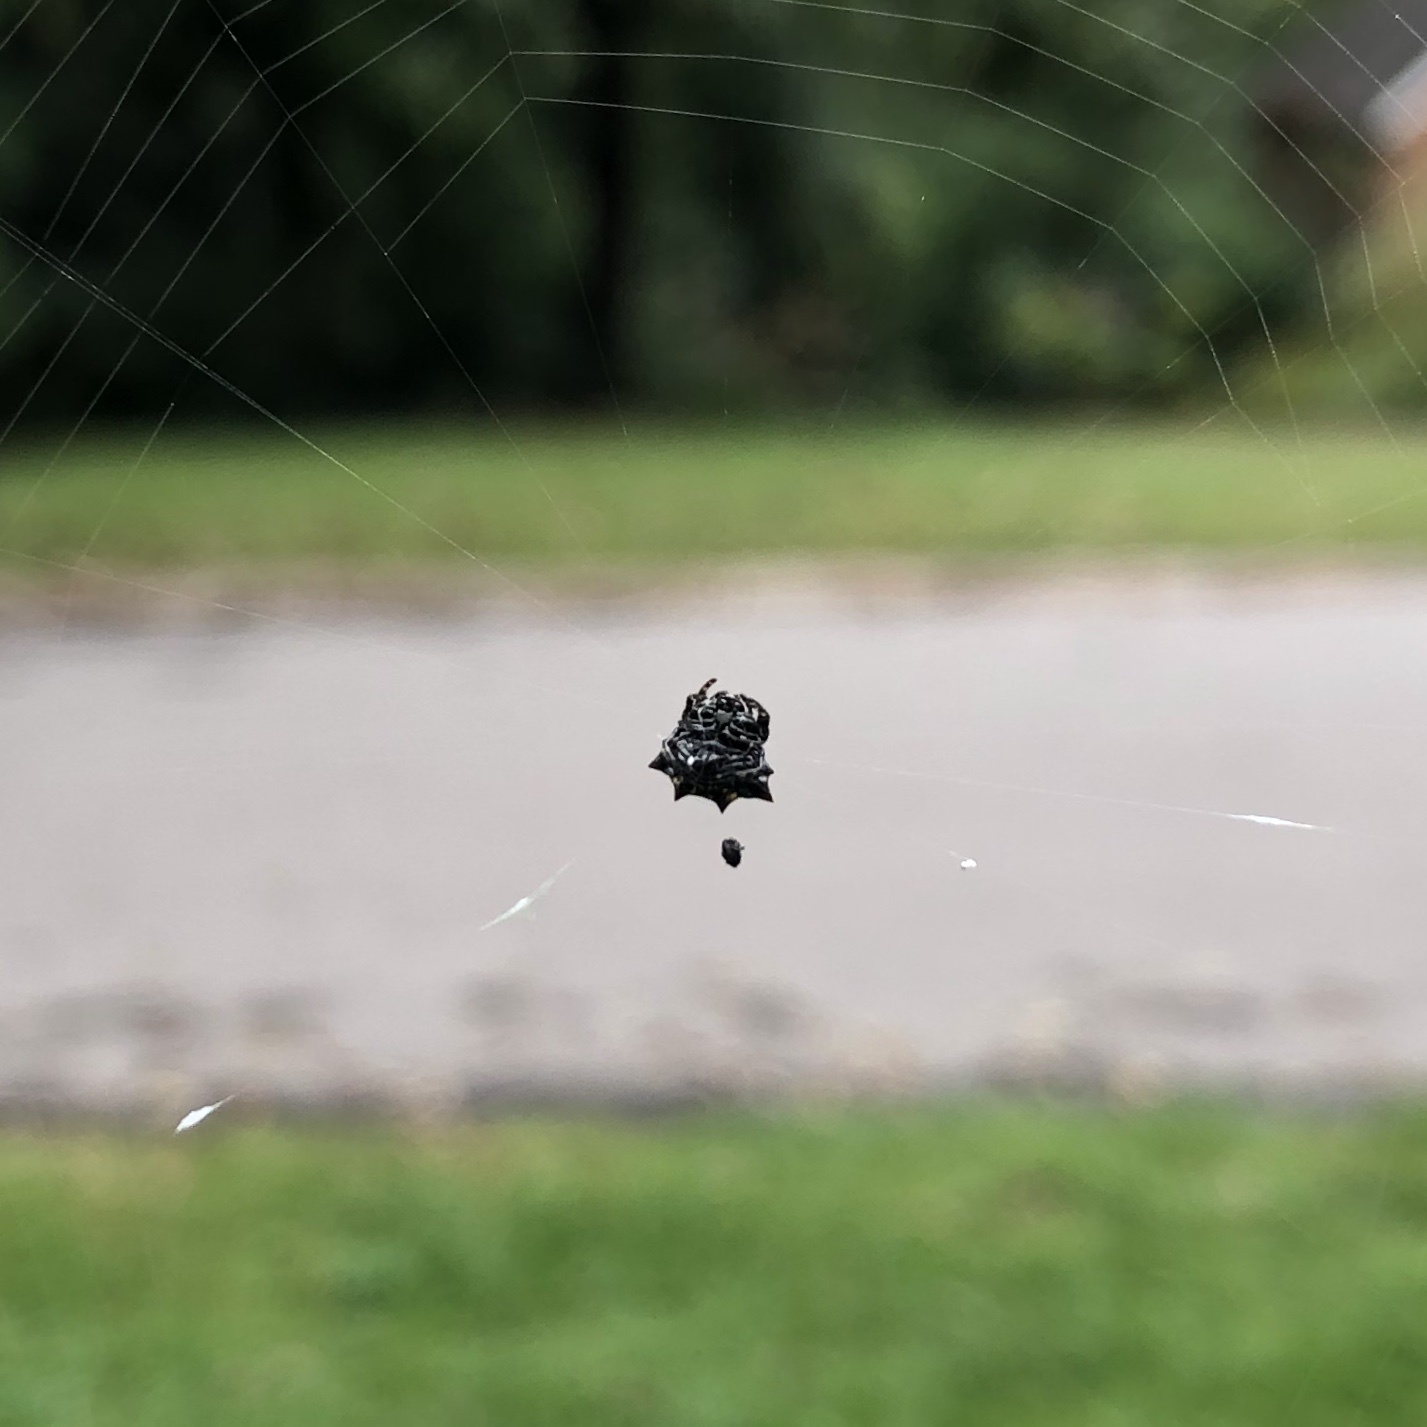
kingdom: Animalia
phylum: Arthropoda
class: Arachnida
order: Araneae
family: Araneidae
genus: Gasteracantha
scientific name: Gasteracantha cancriformis
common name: Orb weavers
